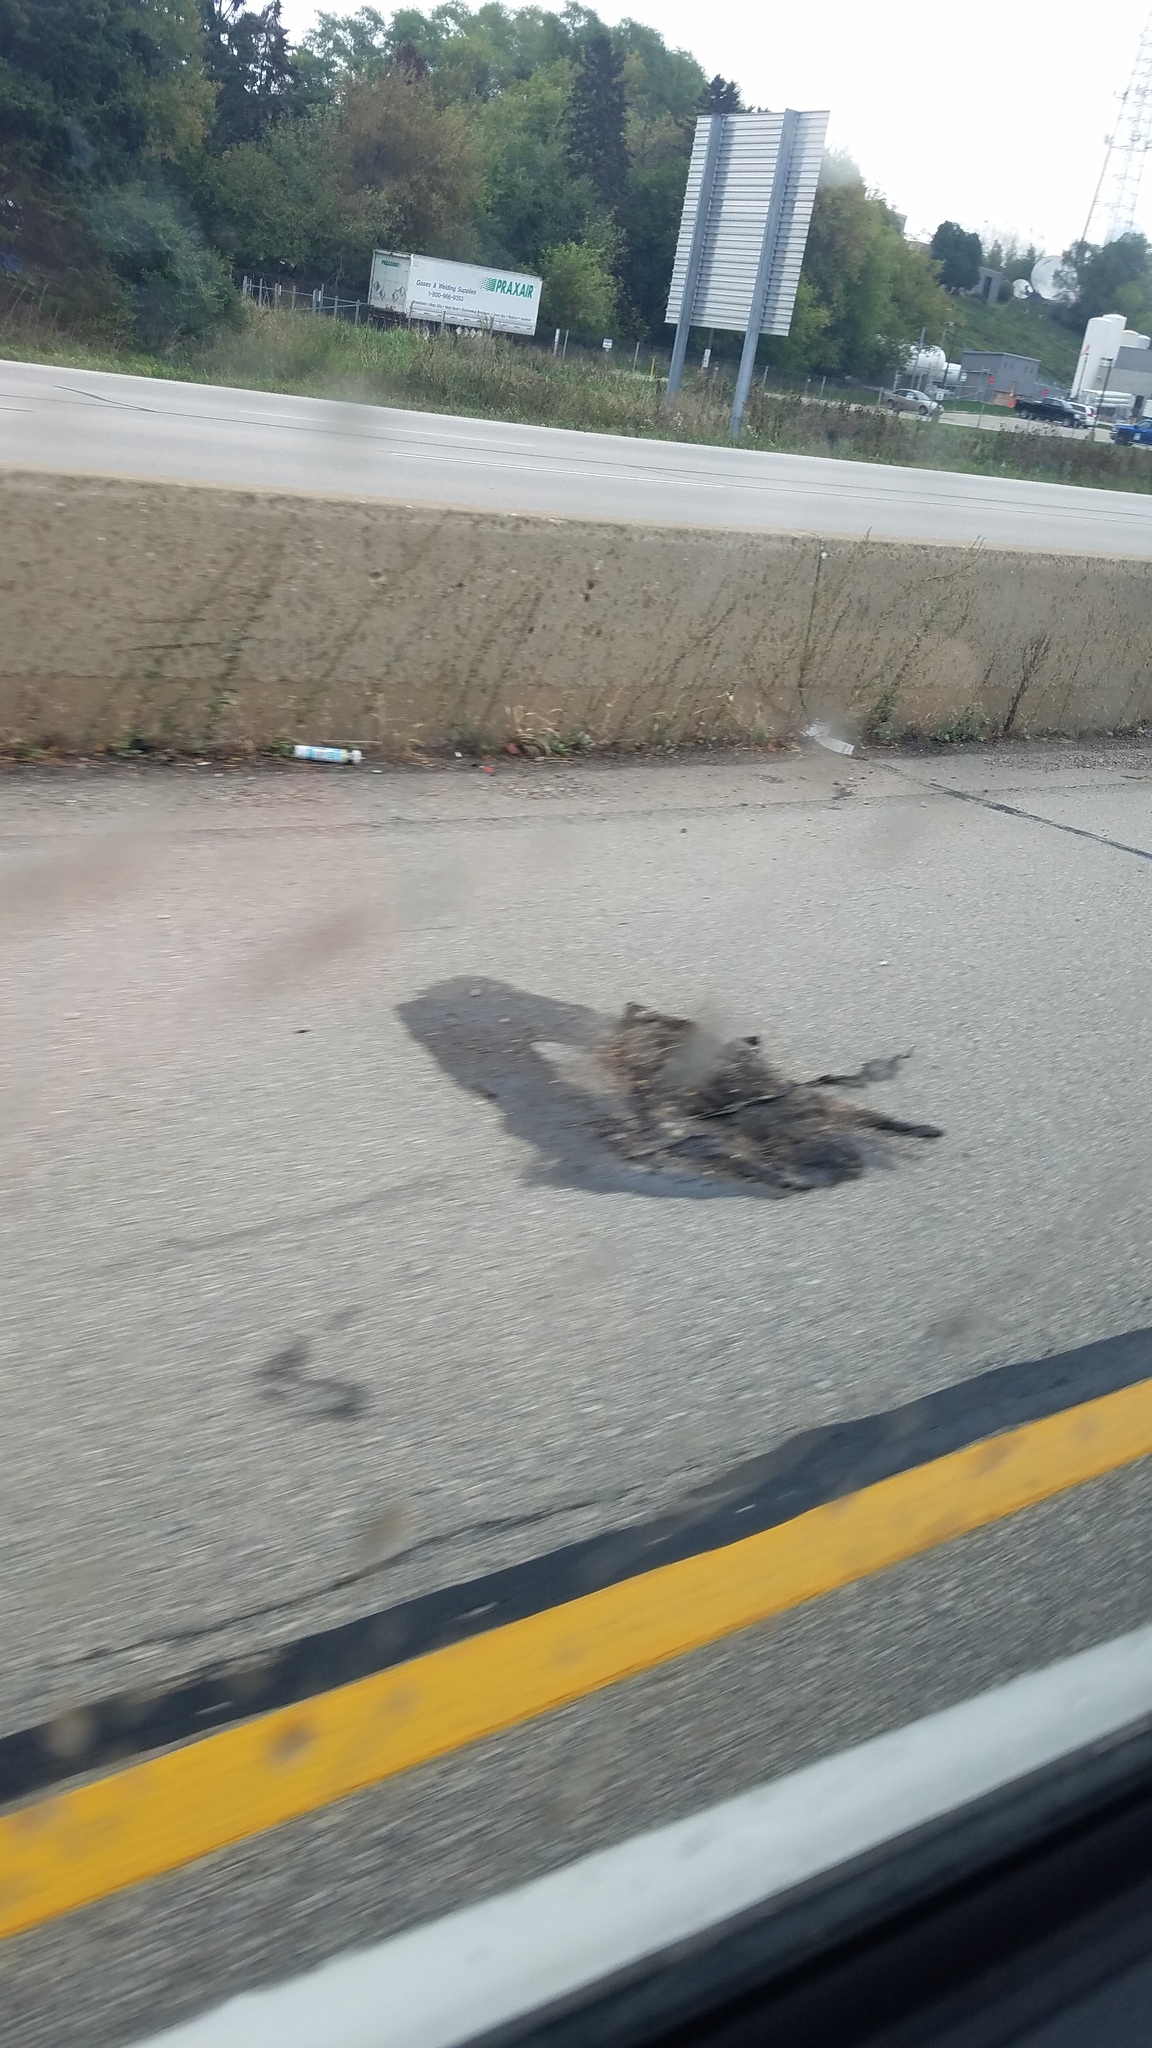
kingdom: Animalia
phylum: Chordata
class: Mammalia
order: Carnivora
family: Procyonidae
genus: Procyon
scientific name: Procyon lotor
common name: Raccoon
